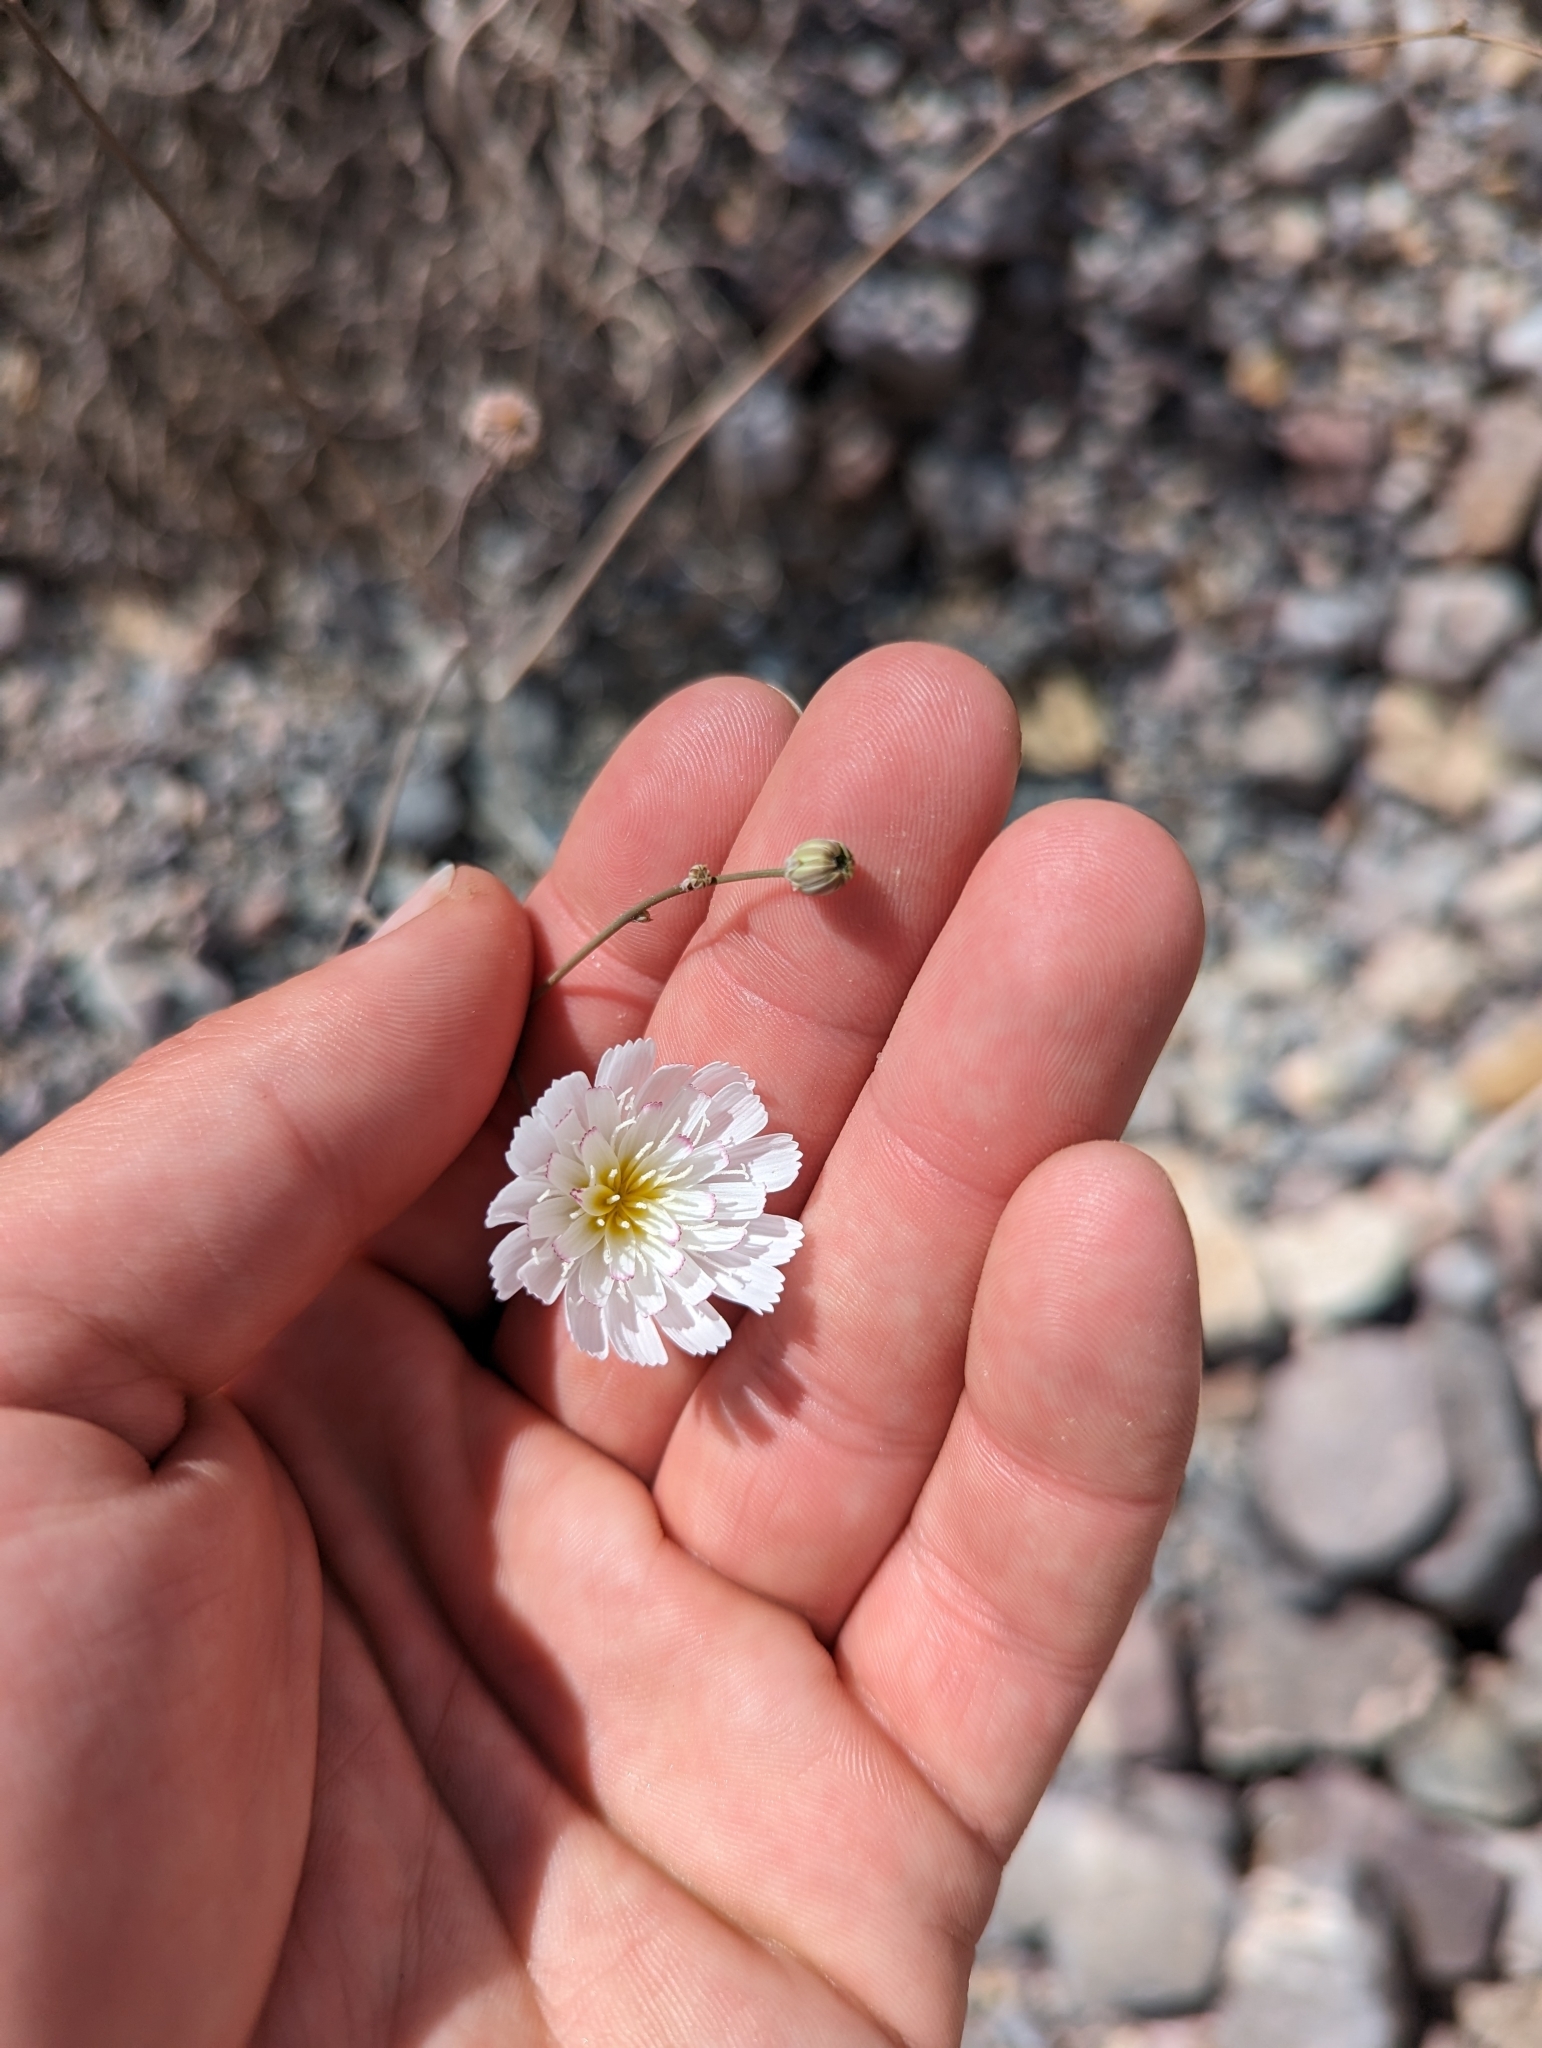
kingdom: Plantae
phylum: Tracheophyta
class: Magnoliopsida
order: Asterales
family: Asteraceae
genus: Atrichoseris
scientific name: Atrichoseris platyphylla
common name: Tobaccoweed
